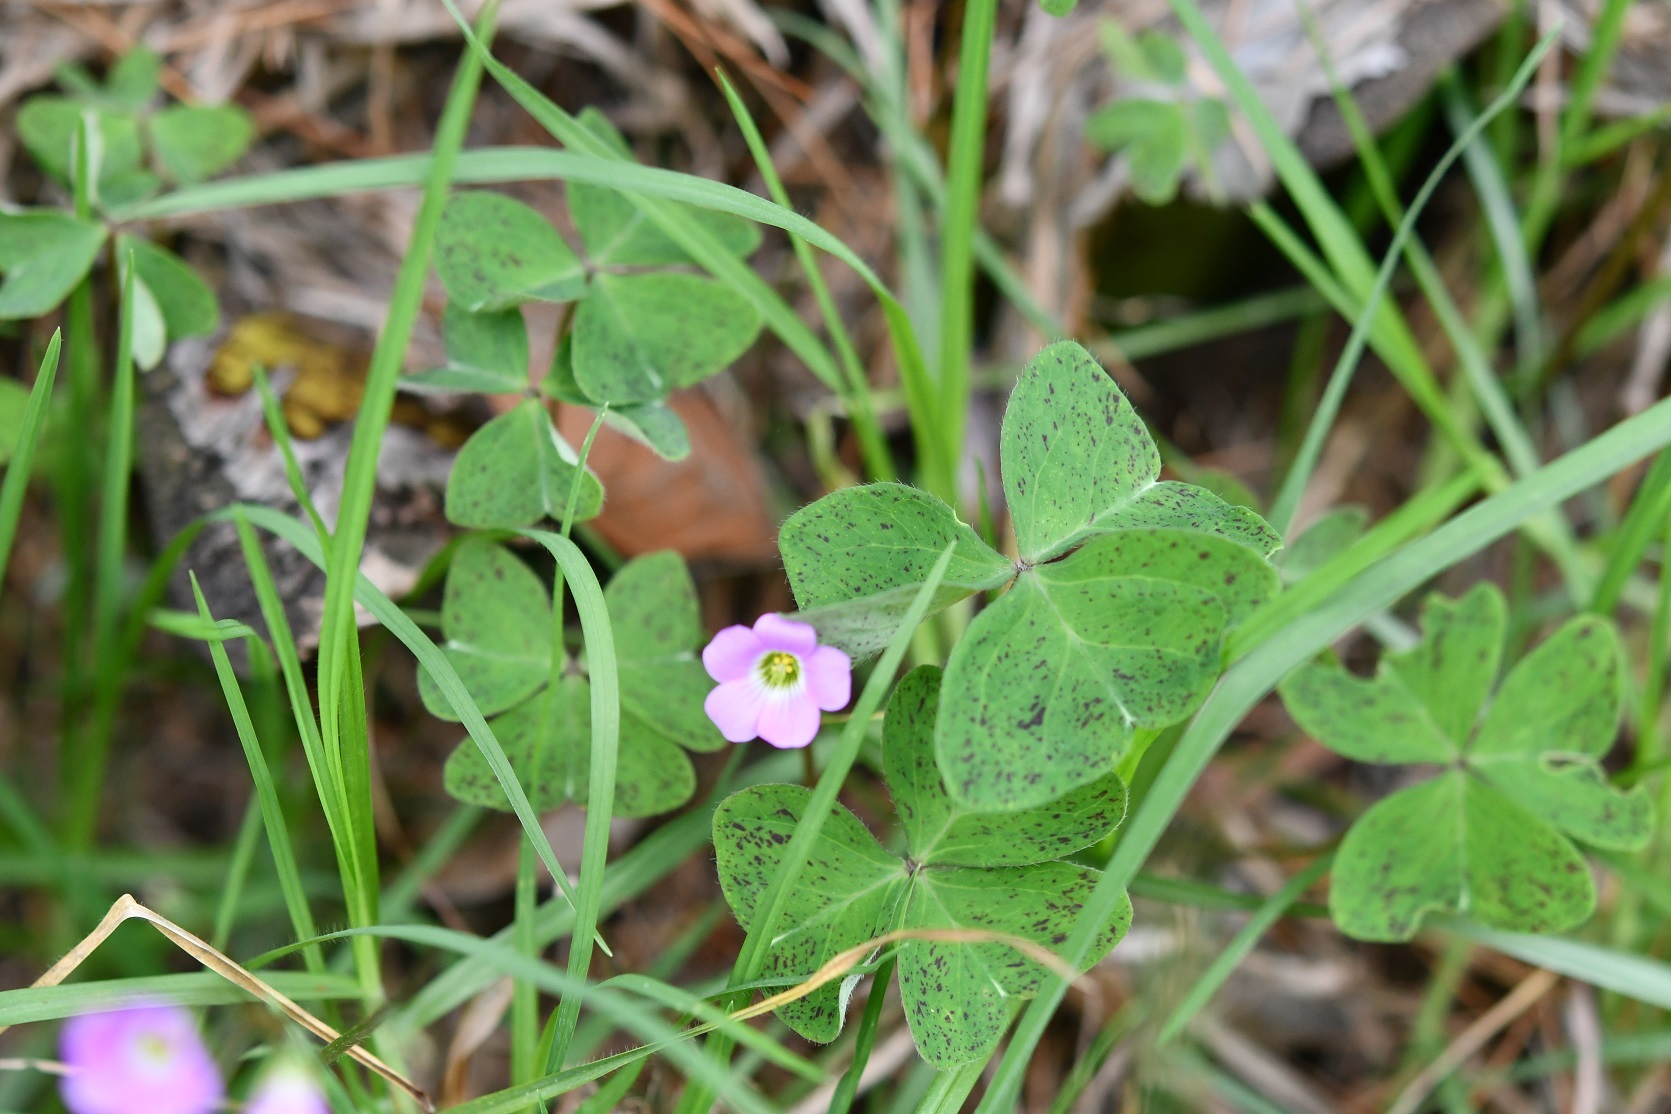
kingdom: Plantae
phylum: Tracheophyta
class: Magnoliopsida
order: Oxalidales
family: Oxalidaceae
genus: Oxalis
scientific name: Oxalis latifolia
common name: Garden pink-sorrel
